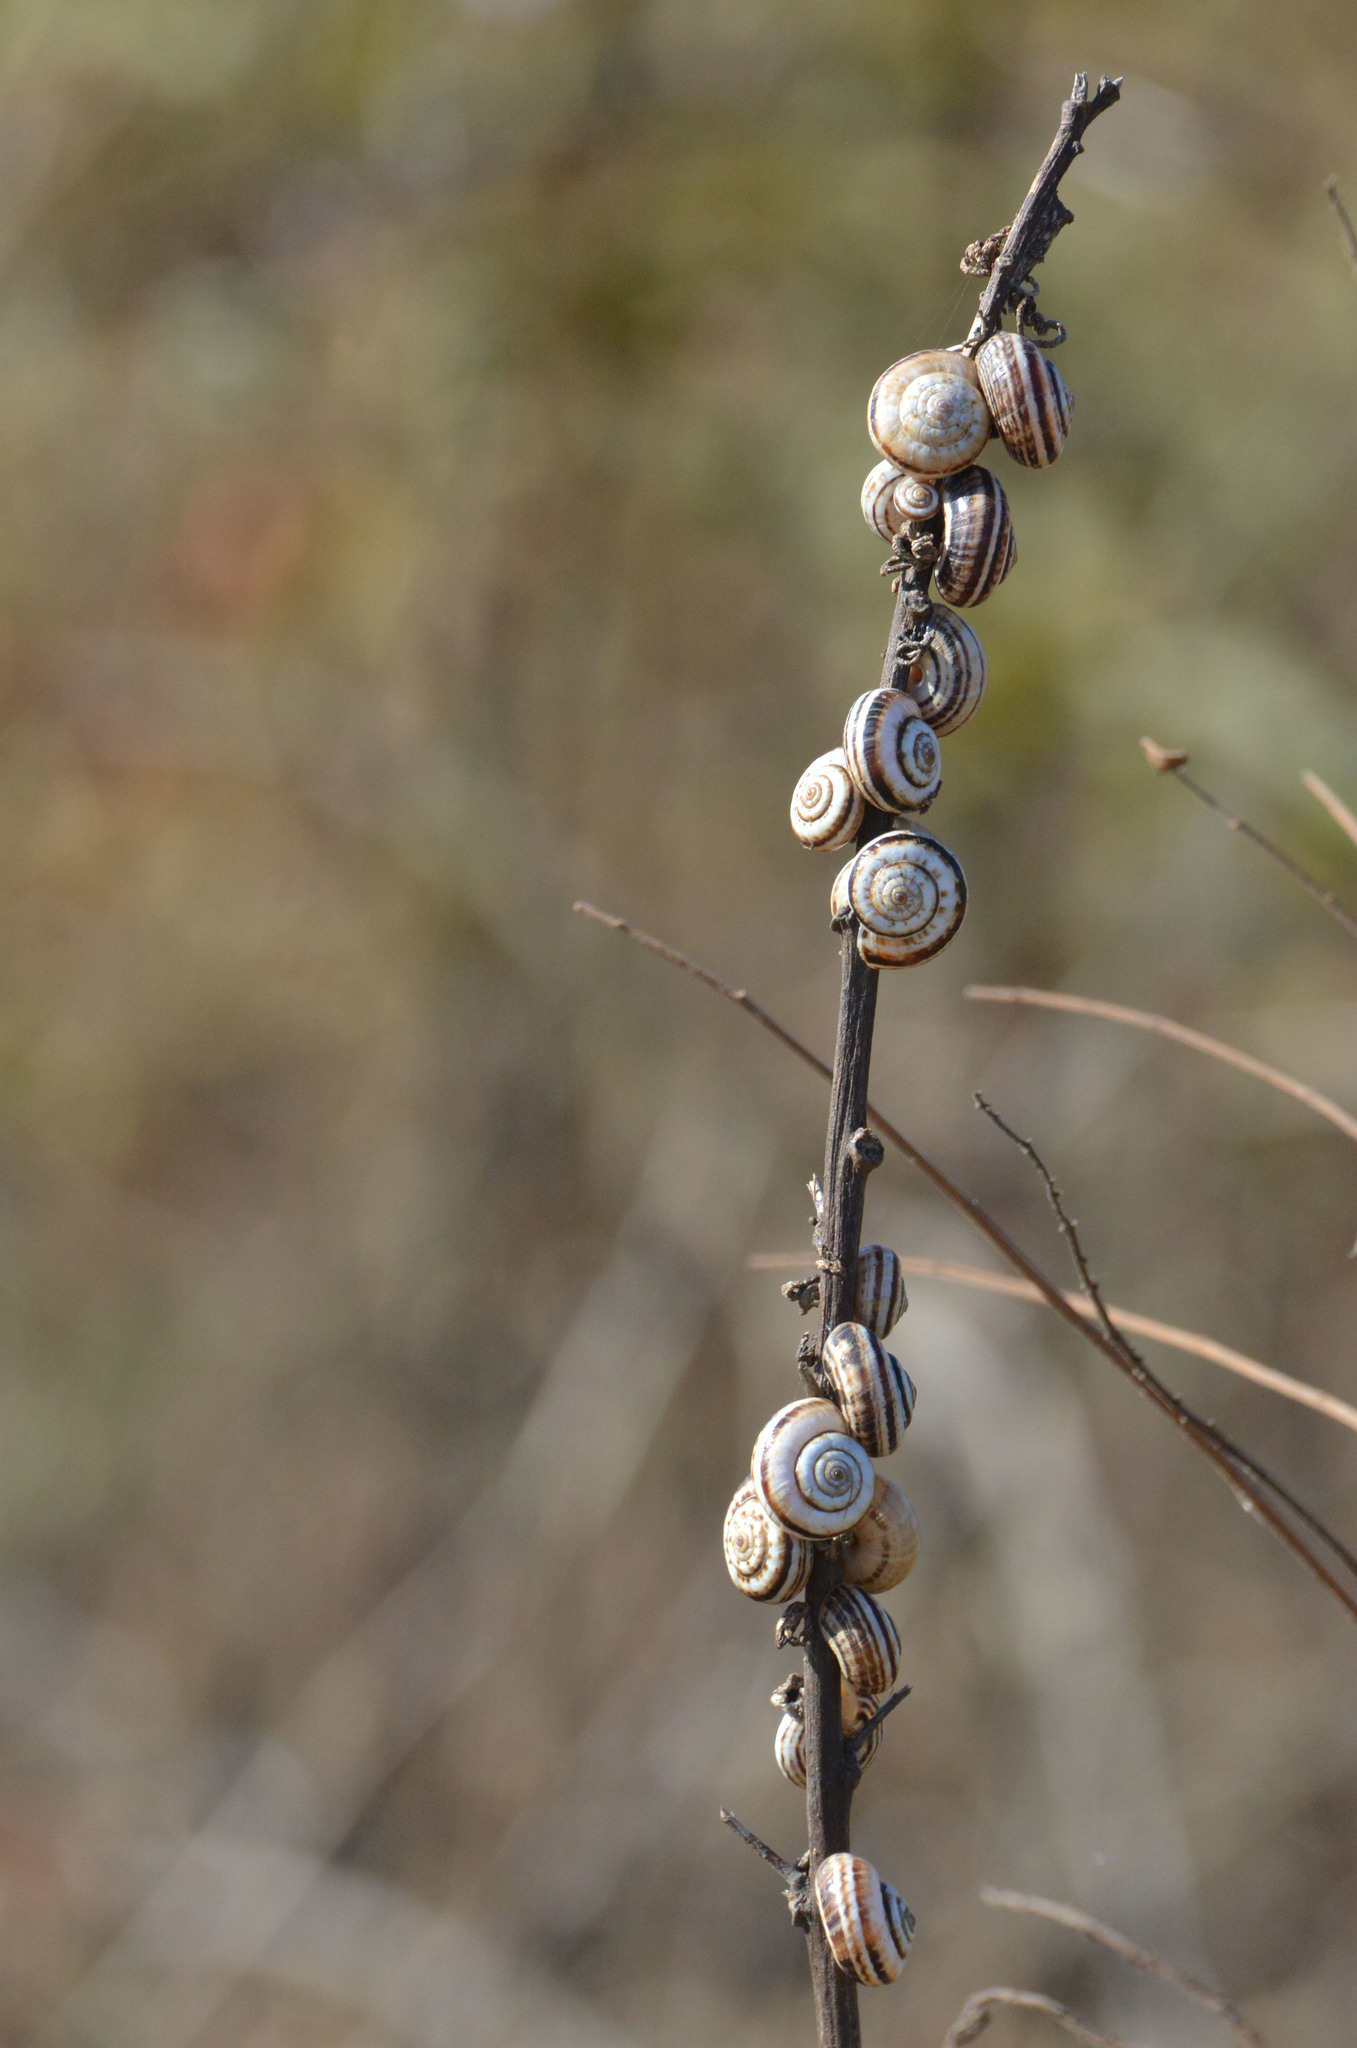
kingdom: Animalia
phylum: Mollusca
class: Gastropoda
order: Stylommatophora
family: Geomitridae
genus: Xeropicta
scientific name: Xeropicta krynickii
